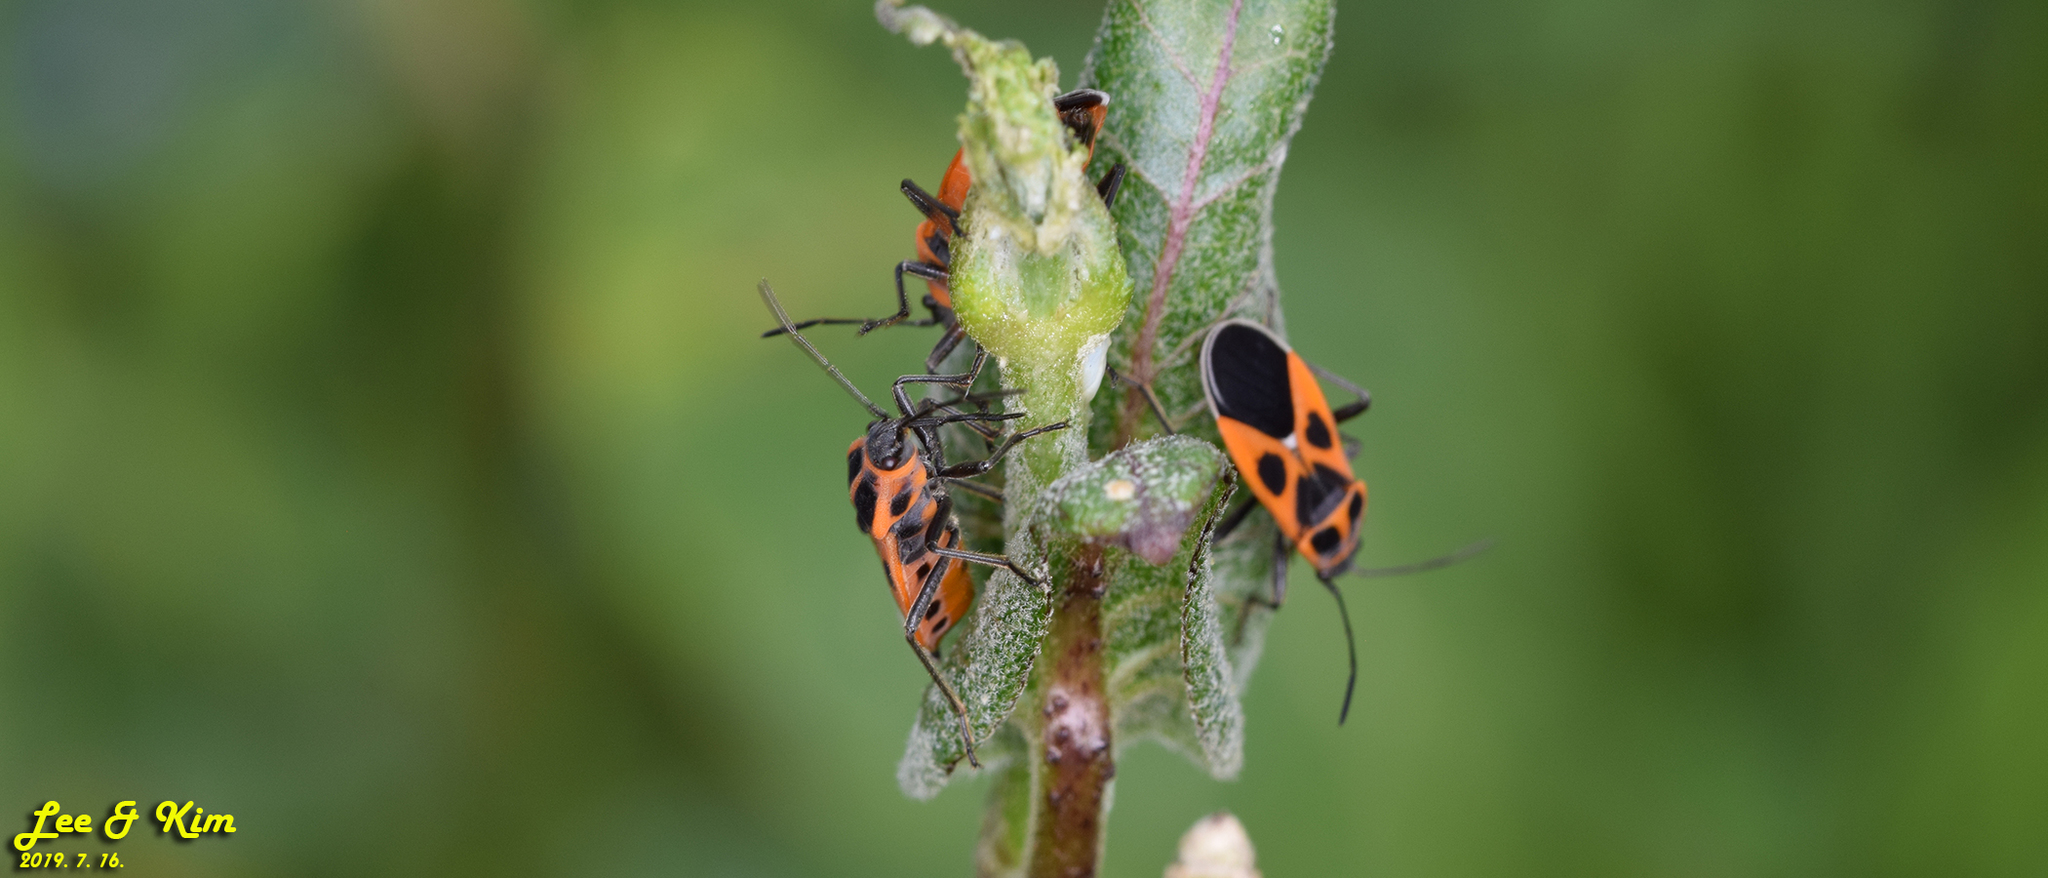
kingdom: Animalia
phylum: Arthropoda
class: Insecta
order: Hemiptera
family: Lygaeidae
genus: Tropidothorax
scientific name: Tropidothorax cruciger
